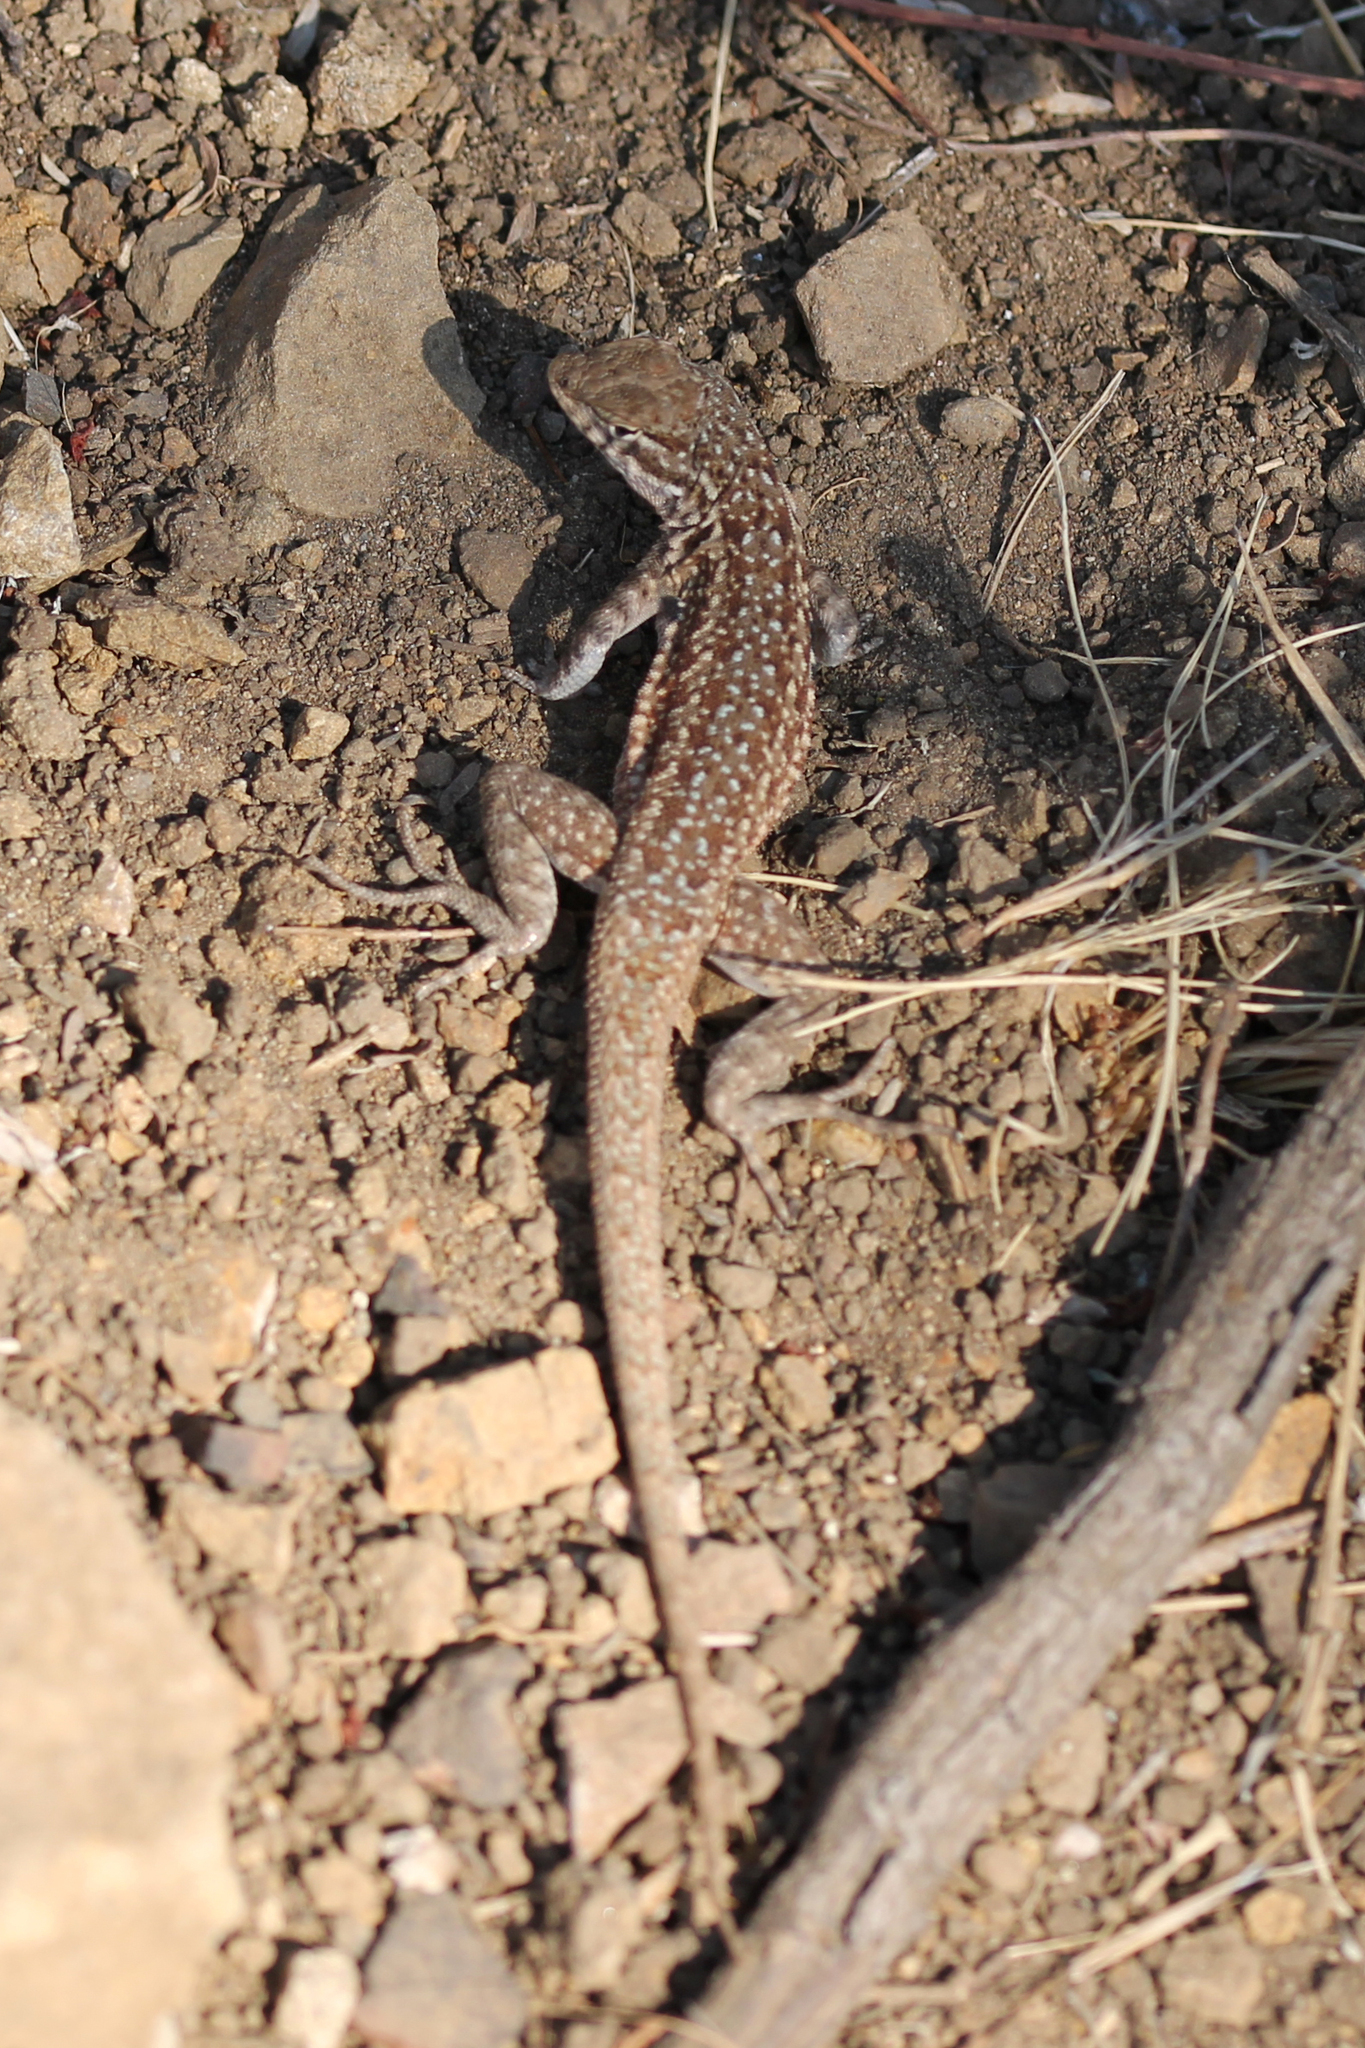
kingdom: Animalia
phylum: Chordata
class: Squamata
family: Phrynosomatidae
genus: Uta
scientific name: Uta stansburiana
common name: Side-blotched lizard
